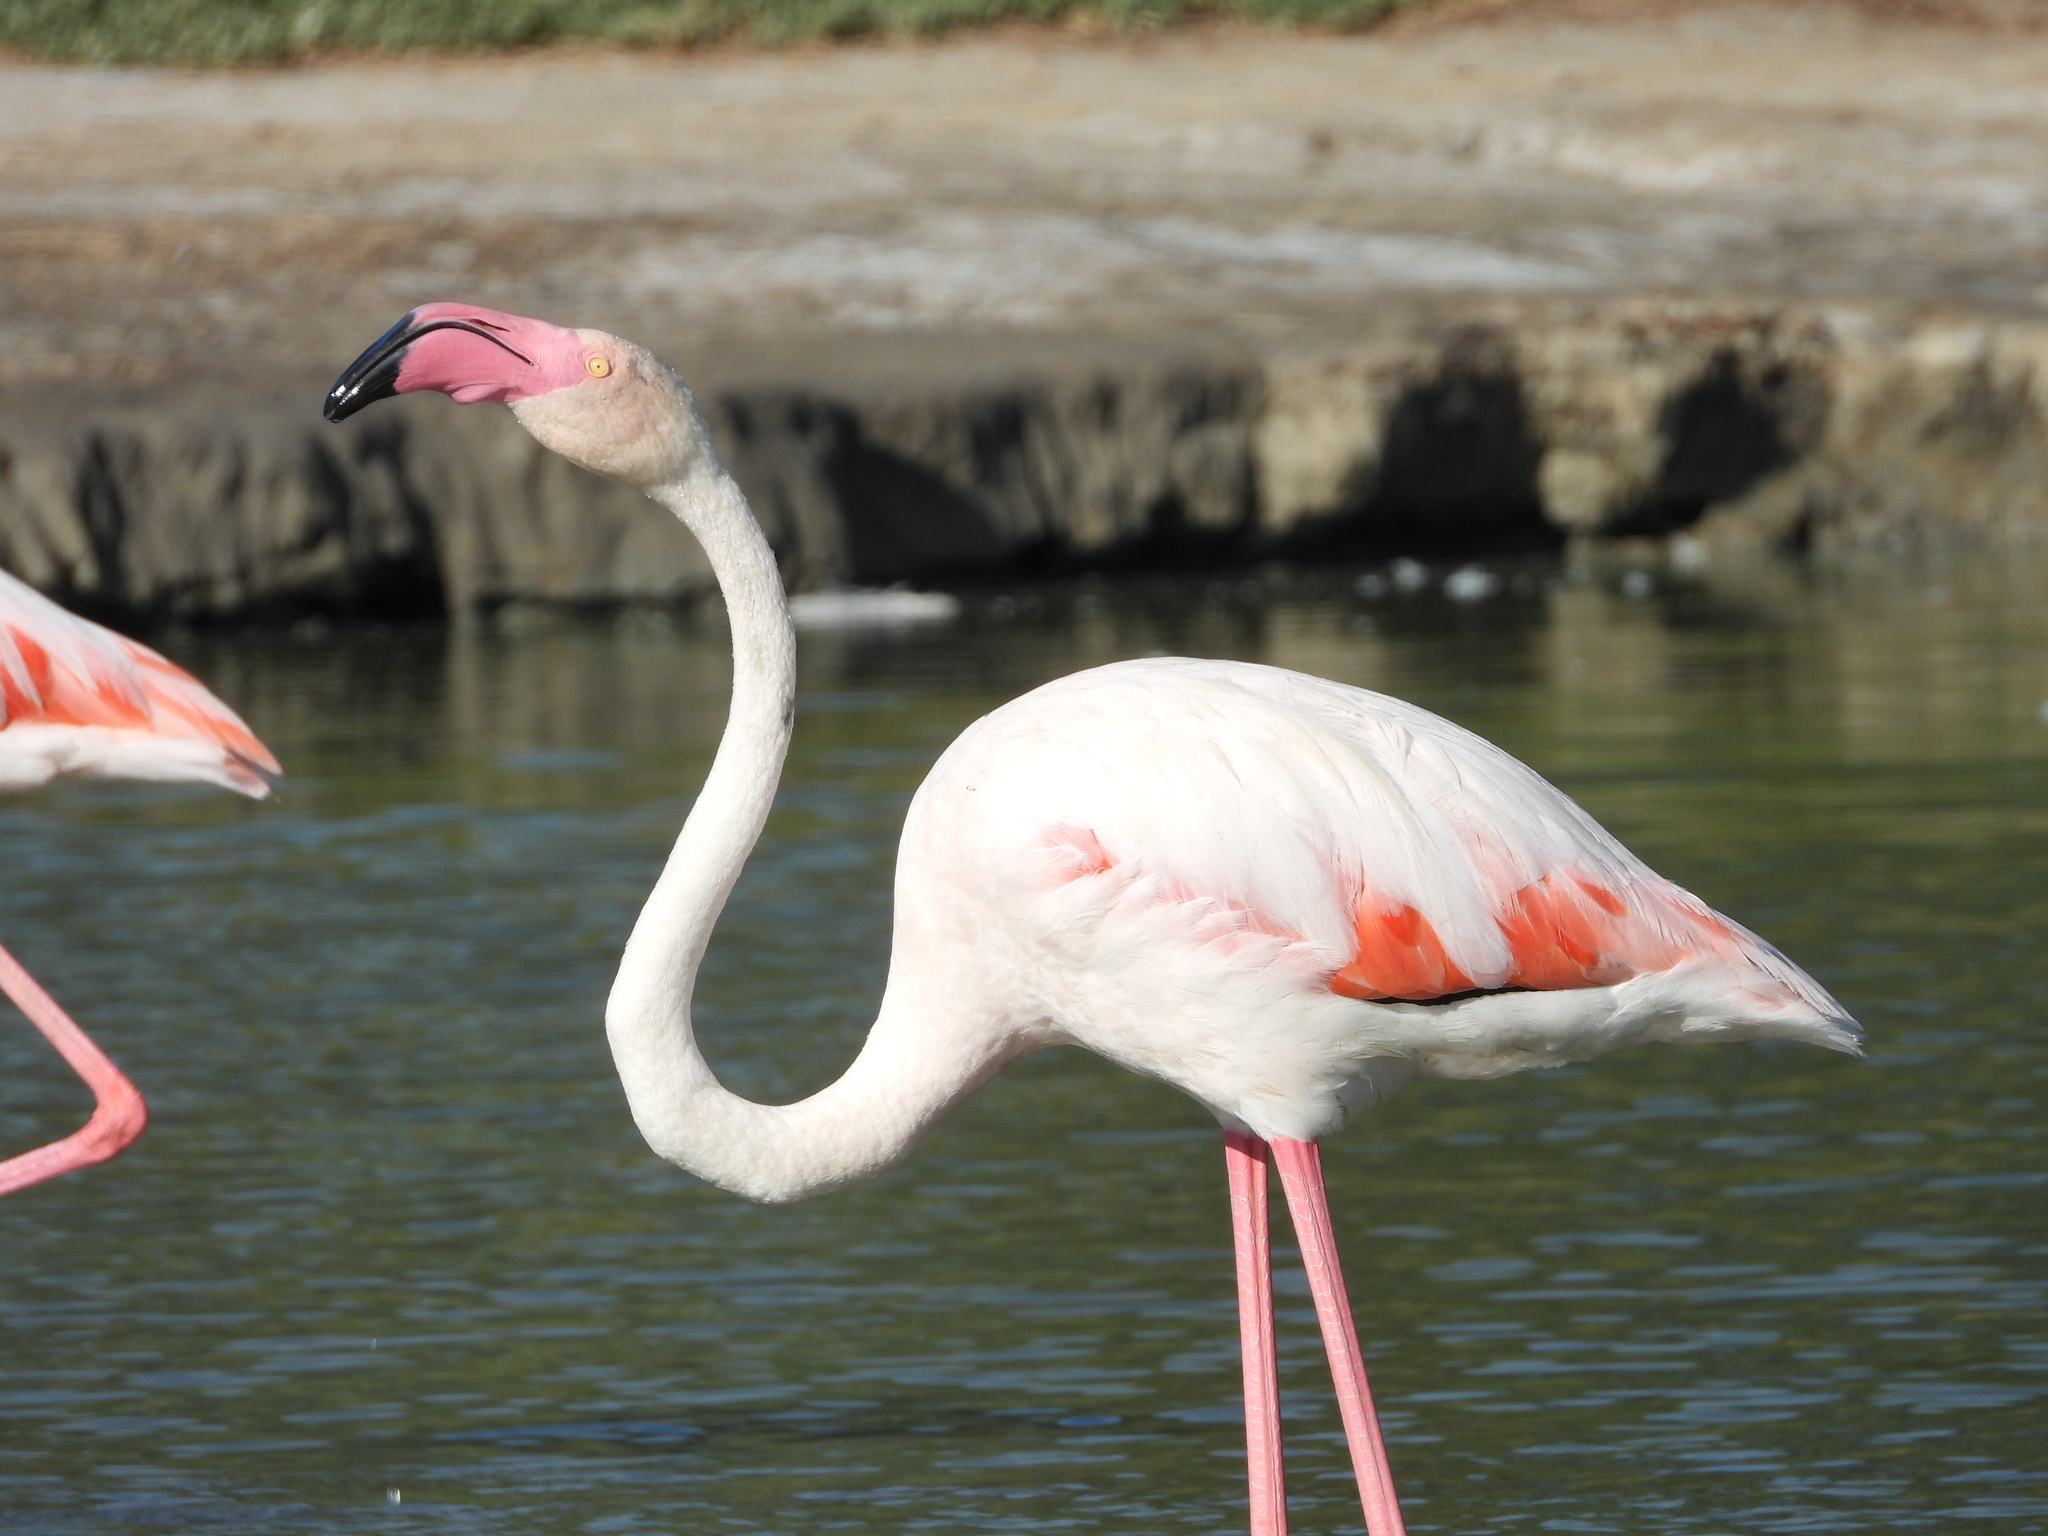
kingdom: Animalia
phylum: Chordata
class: Aves
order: Phoenicopteriformes
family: Phoenicopteridae
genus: Phoenicopterus
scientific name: Phoenicopterus roseus
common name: Greater flamingo
